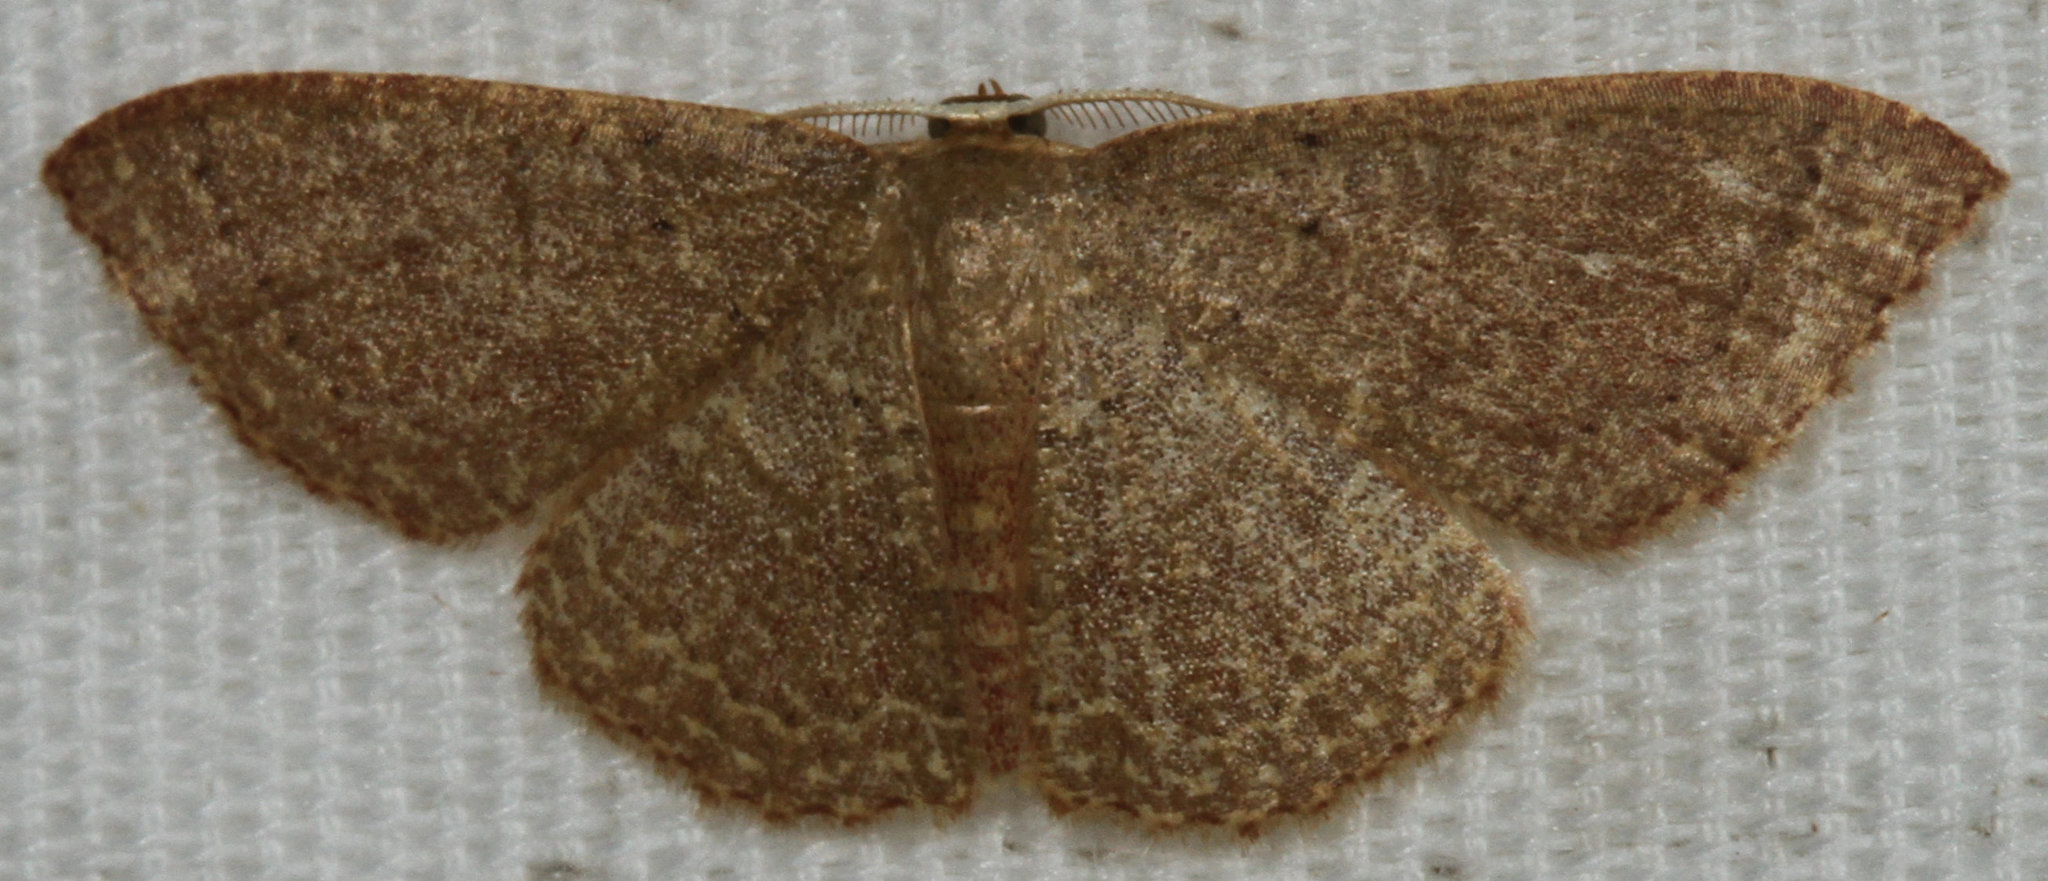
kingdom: Animalia
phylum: Arthropoda
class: Insecta
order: Lepidoptera
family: Geometridae
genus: Pleuroprucha
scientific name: Pleuroprucha insulsaria
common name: Common tan wave
